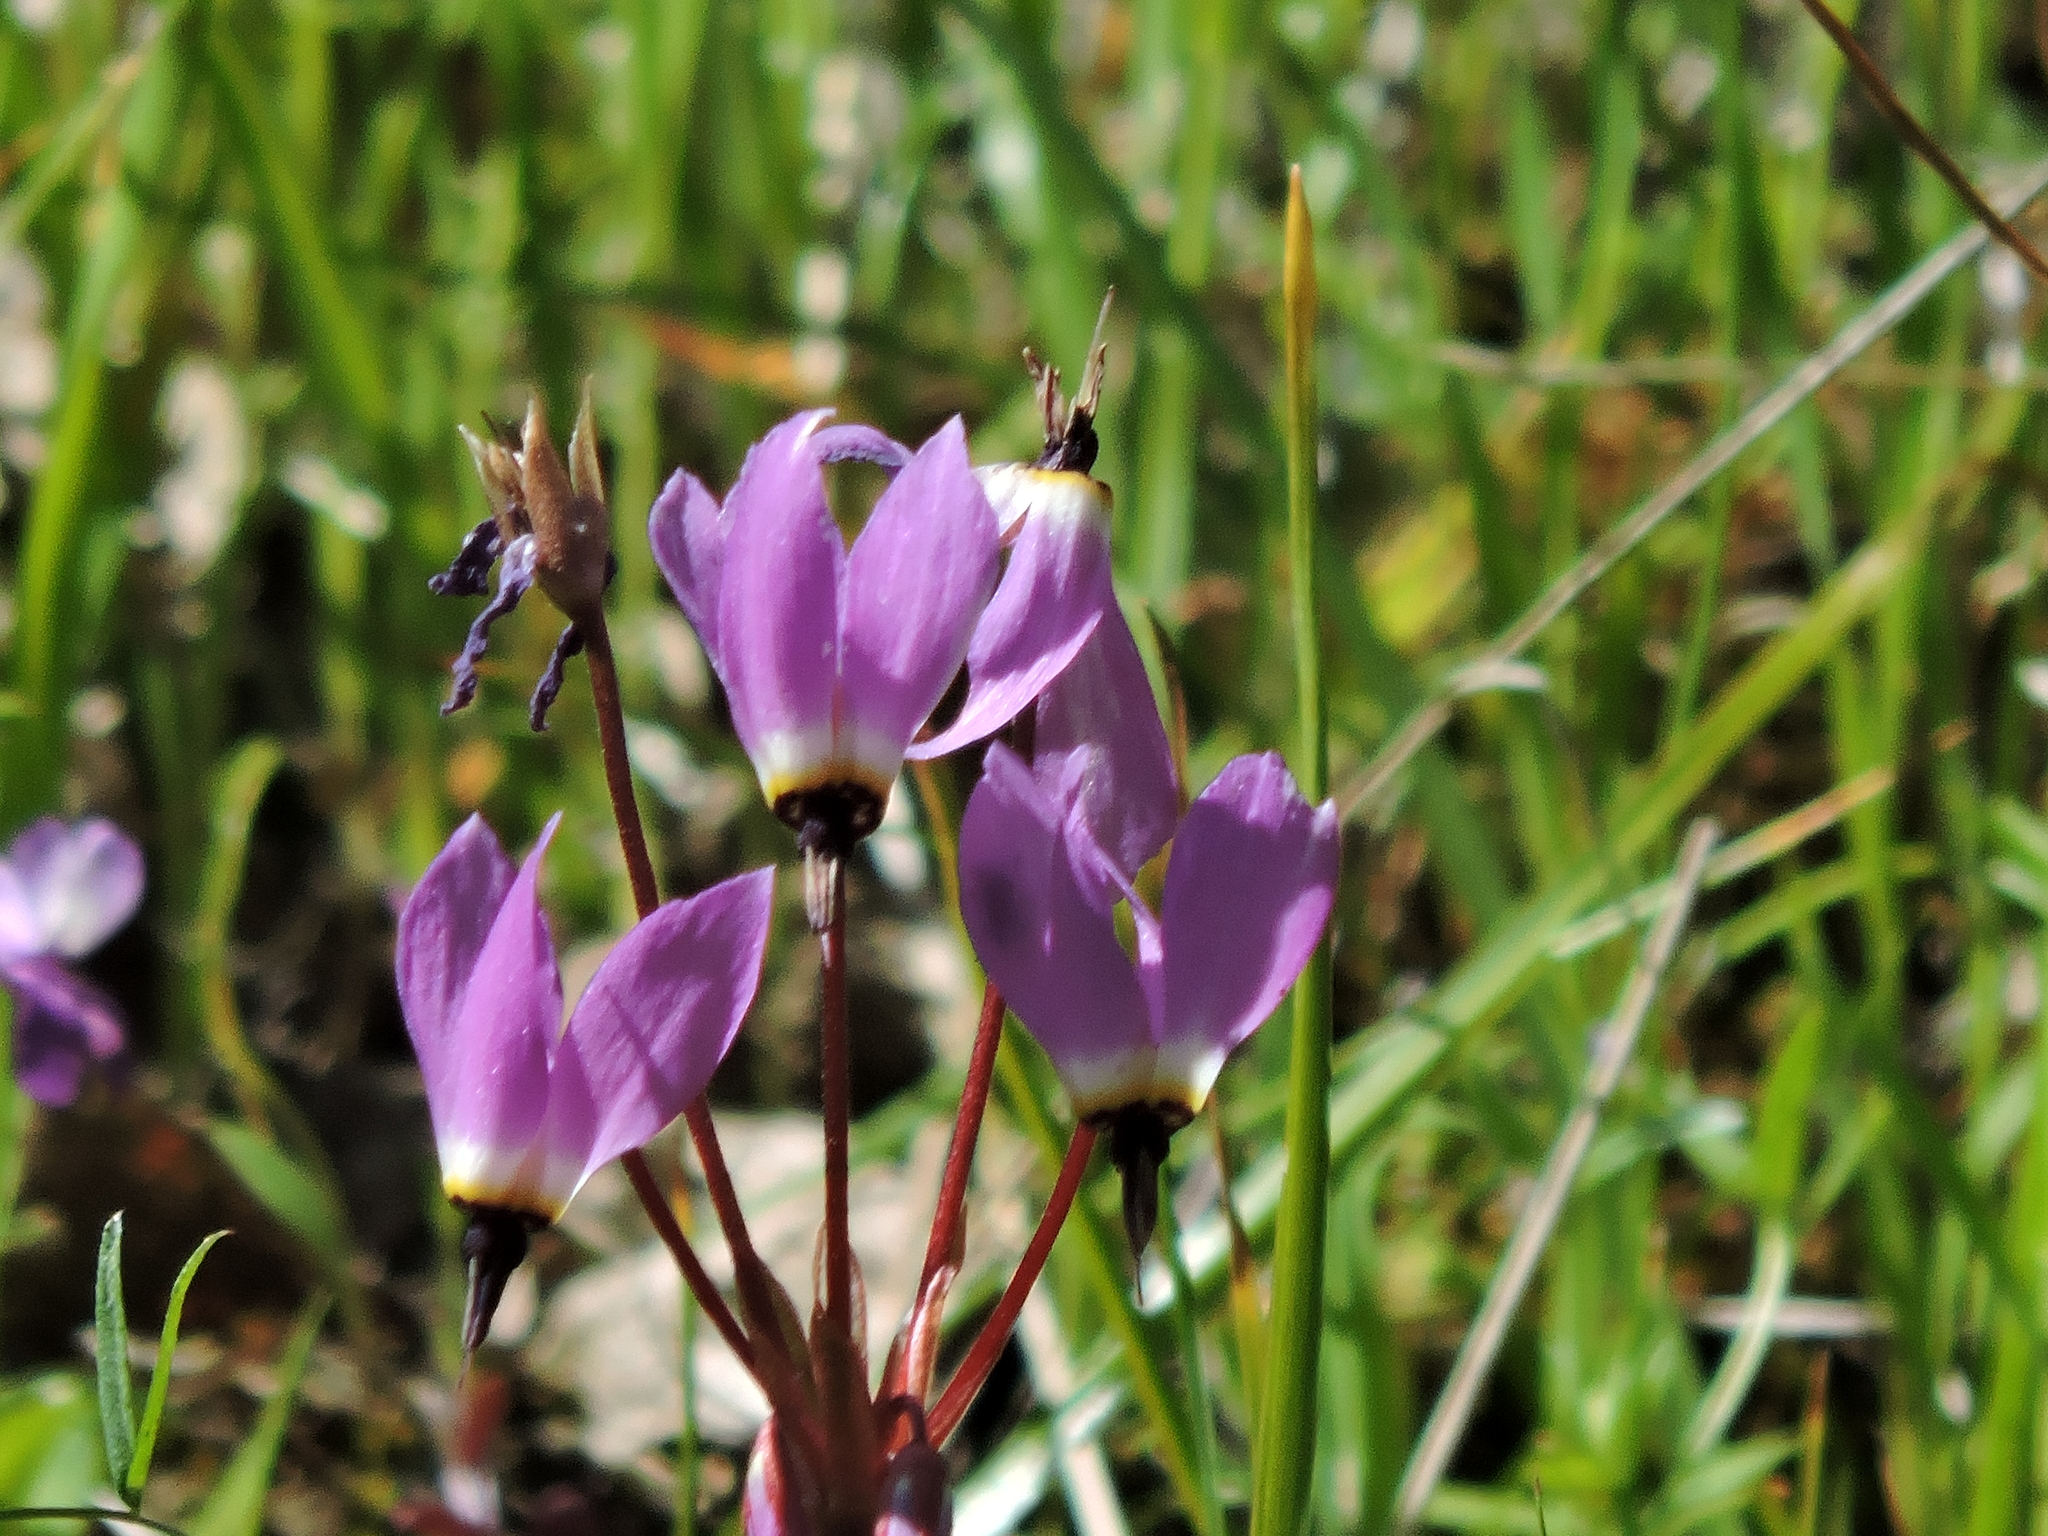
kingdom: Plantae
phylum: Tracheophyta
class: Magnoliopsida
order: Ericales
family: Primulaceae
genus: Dodecatheon
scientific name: Dodecatheon hendersonii
